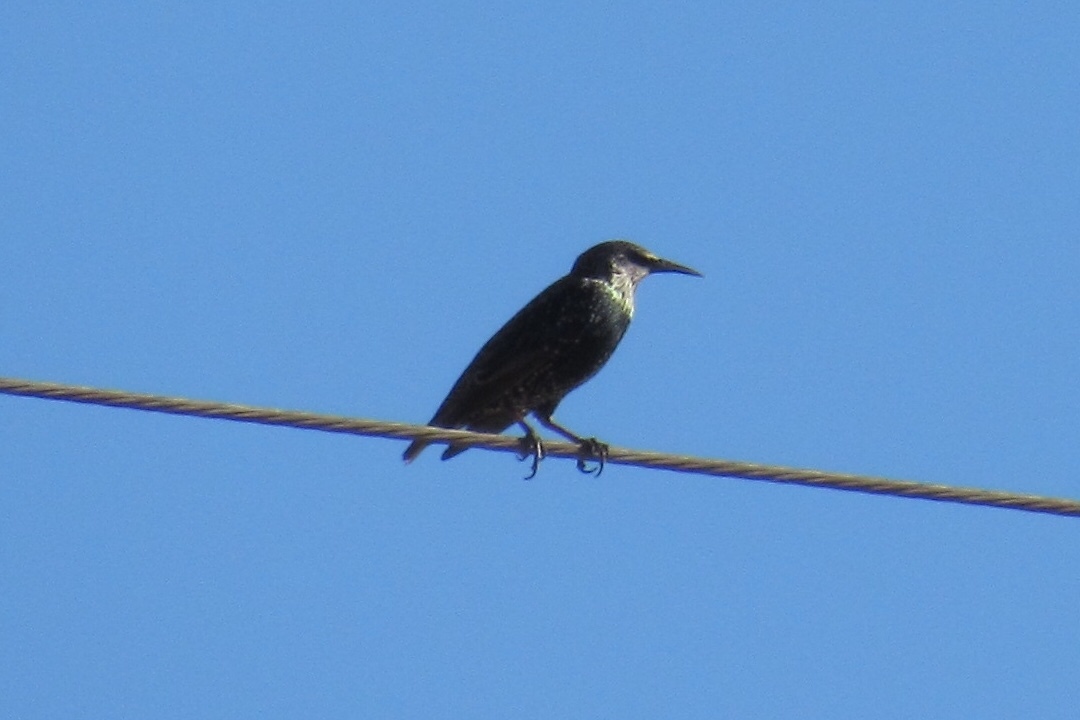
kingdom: Animalia
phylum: Chordata
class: Aves
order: Passeriformes
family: Sturnidae
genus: Sturnus
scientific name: Sturnus vulgaris
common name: Common starling
